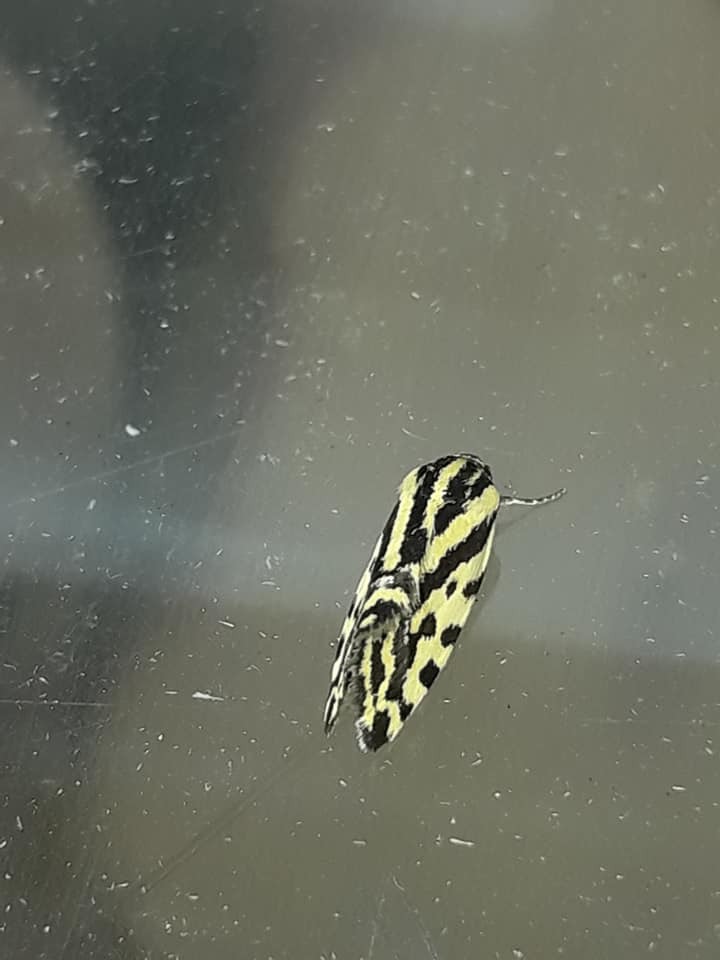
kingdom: Animalia
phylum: Arthropoda
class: Insecta
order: Lepidoptera
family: Noctuidae
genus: Acontia
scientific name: Acontia trabealis
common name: Spotted sulphur
